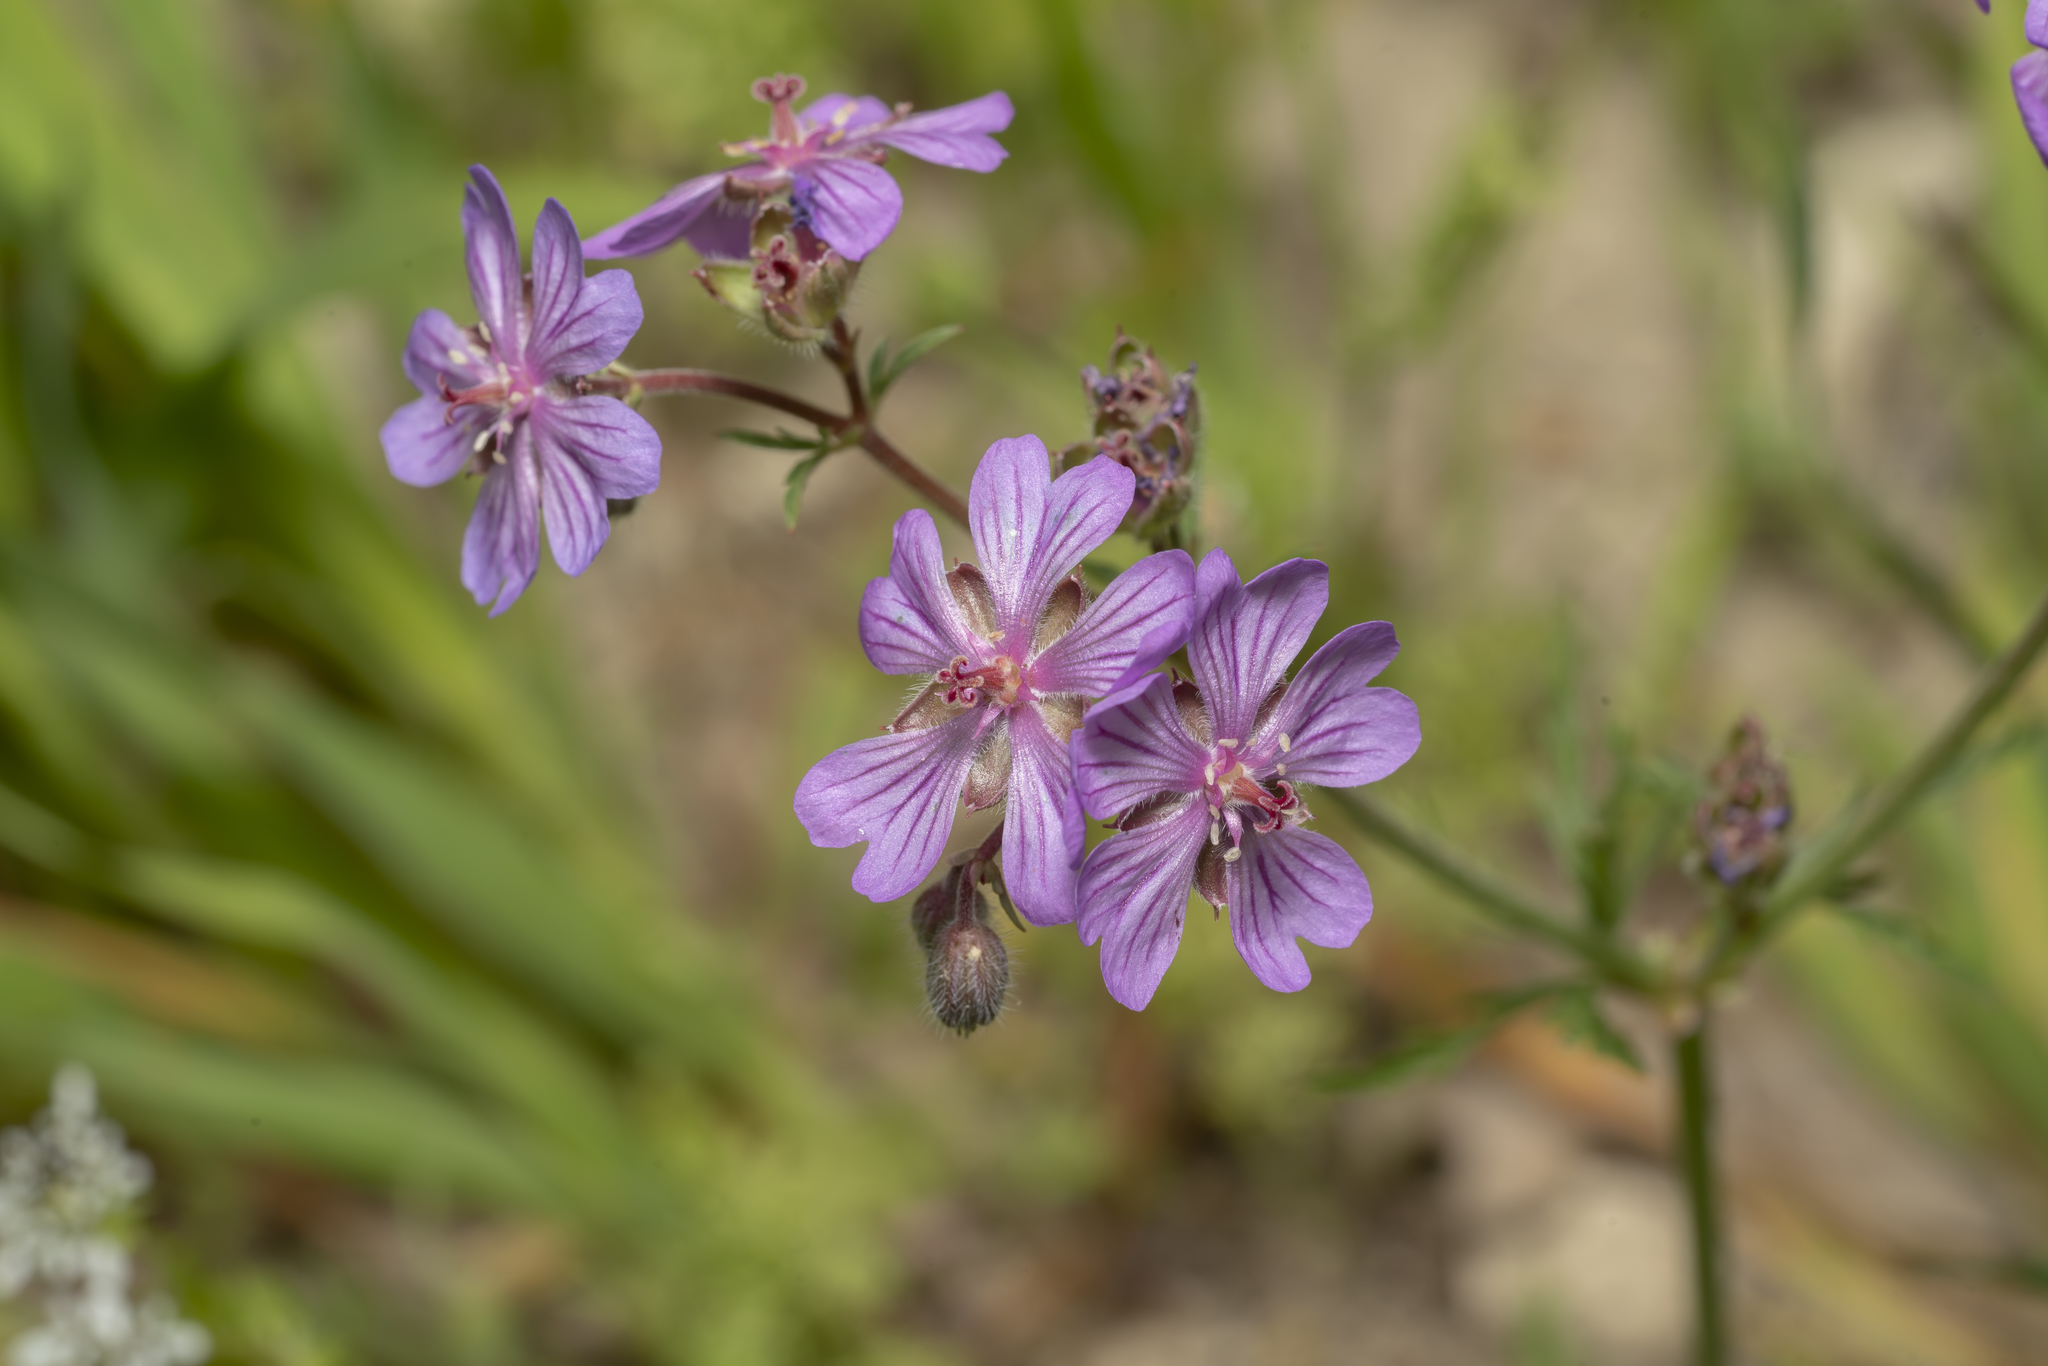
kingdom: Plantae
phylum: Tracheophyta
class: Magnoliopsida
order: Geraniales
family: Geraniaceae
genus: Geranium
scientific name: Geranium tuberosum
